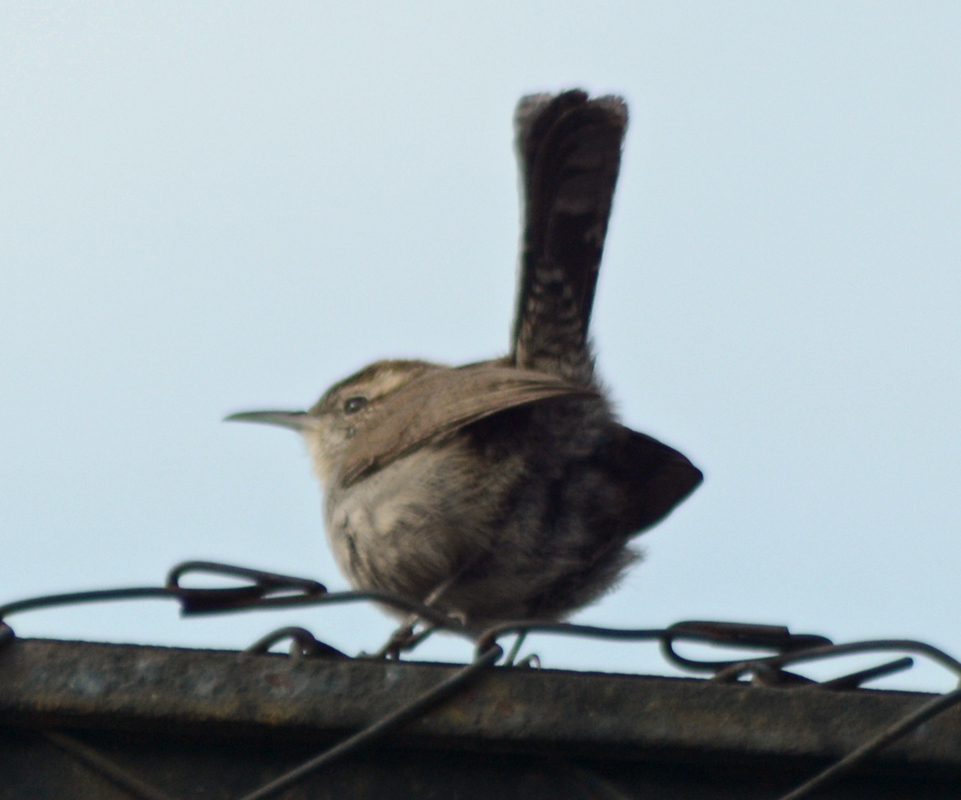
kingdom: Animalia
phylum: Chordata
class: Aves
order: Passeriformes
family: Troglodytidae
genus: Thryomanes
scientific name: Thryomanes bewickii
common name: Bewick's wren
